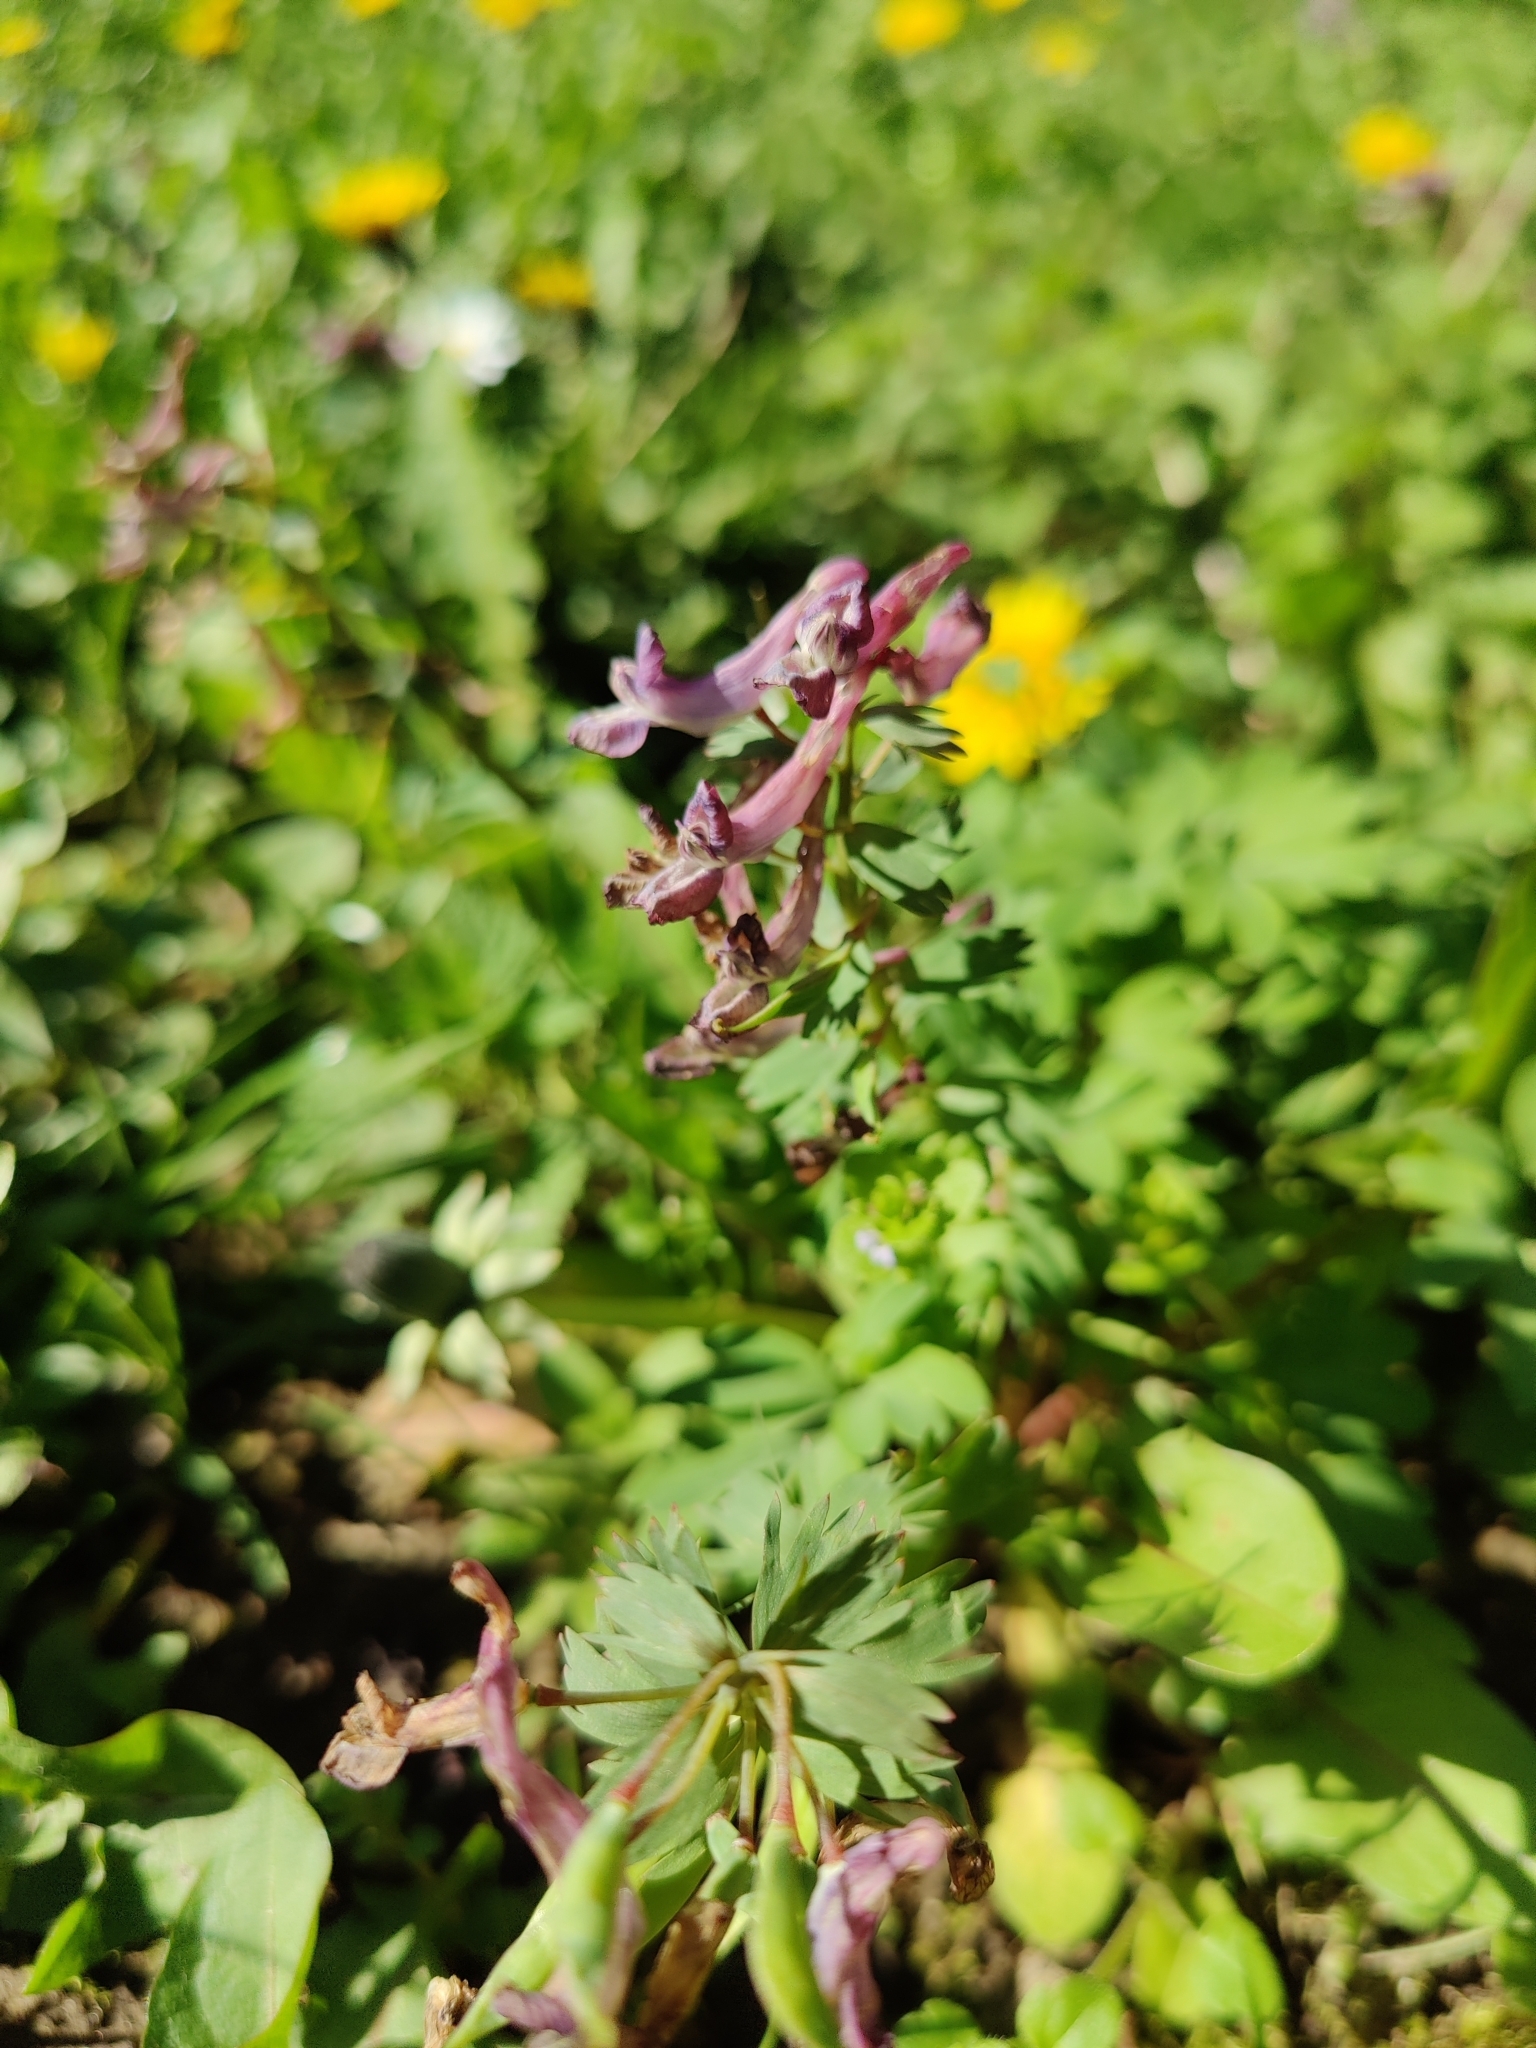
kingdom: Plantae
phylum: Tracheophyta
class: Magnoliopsida
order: Ranunculales
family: Papaveraceae
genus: Corydalis
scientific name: Corydalis solida
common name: Bird-in-a-bush
